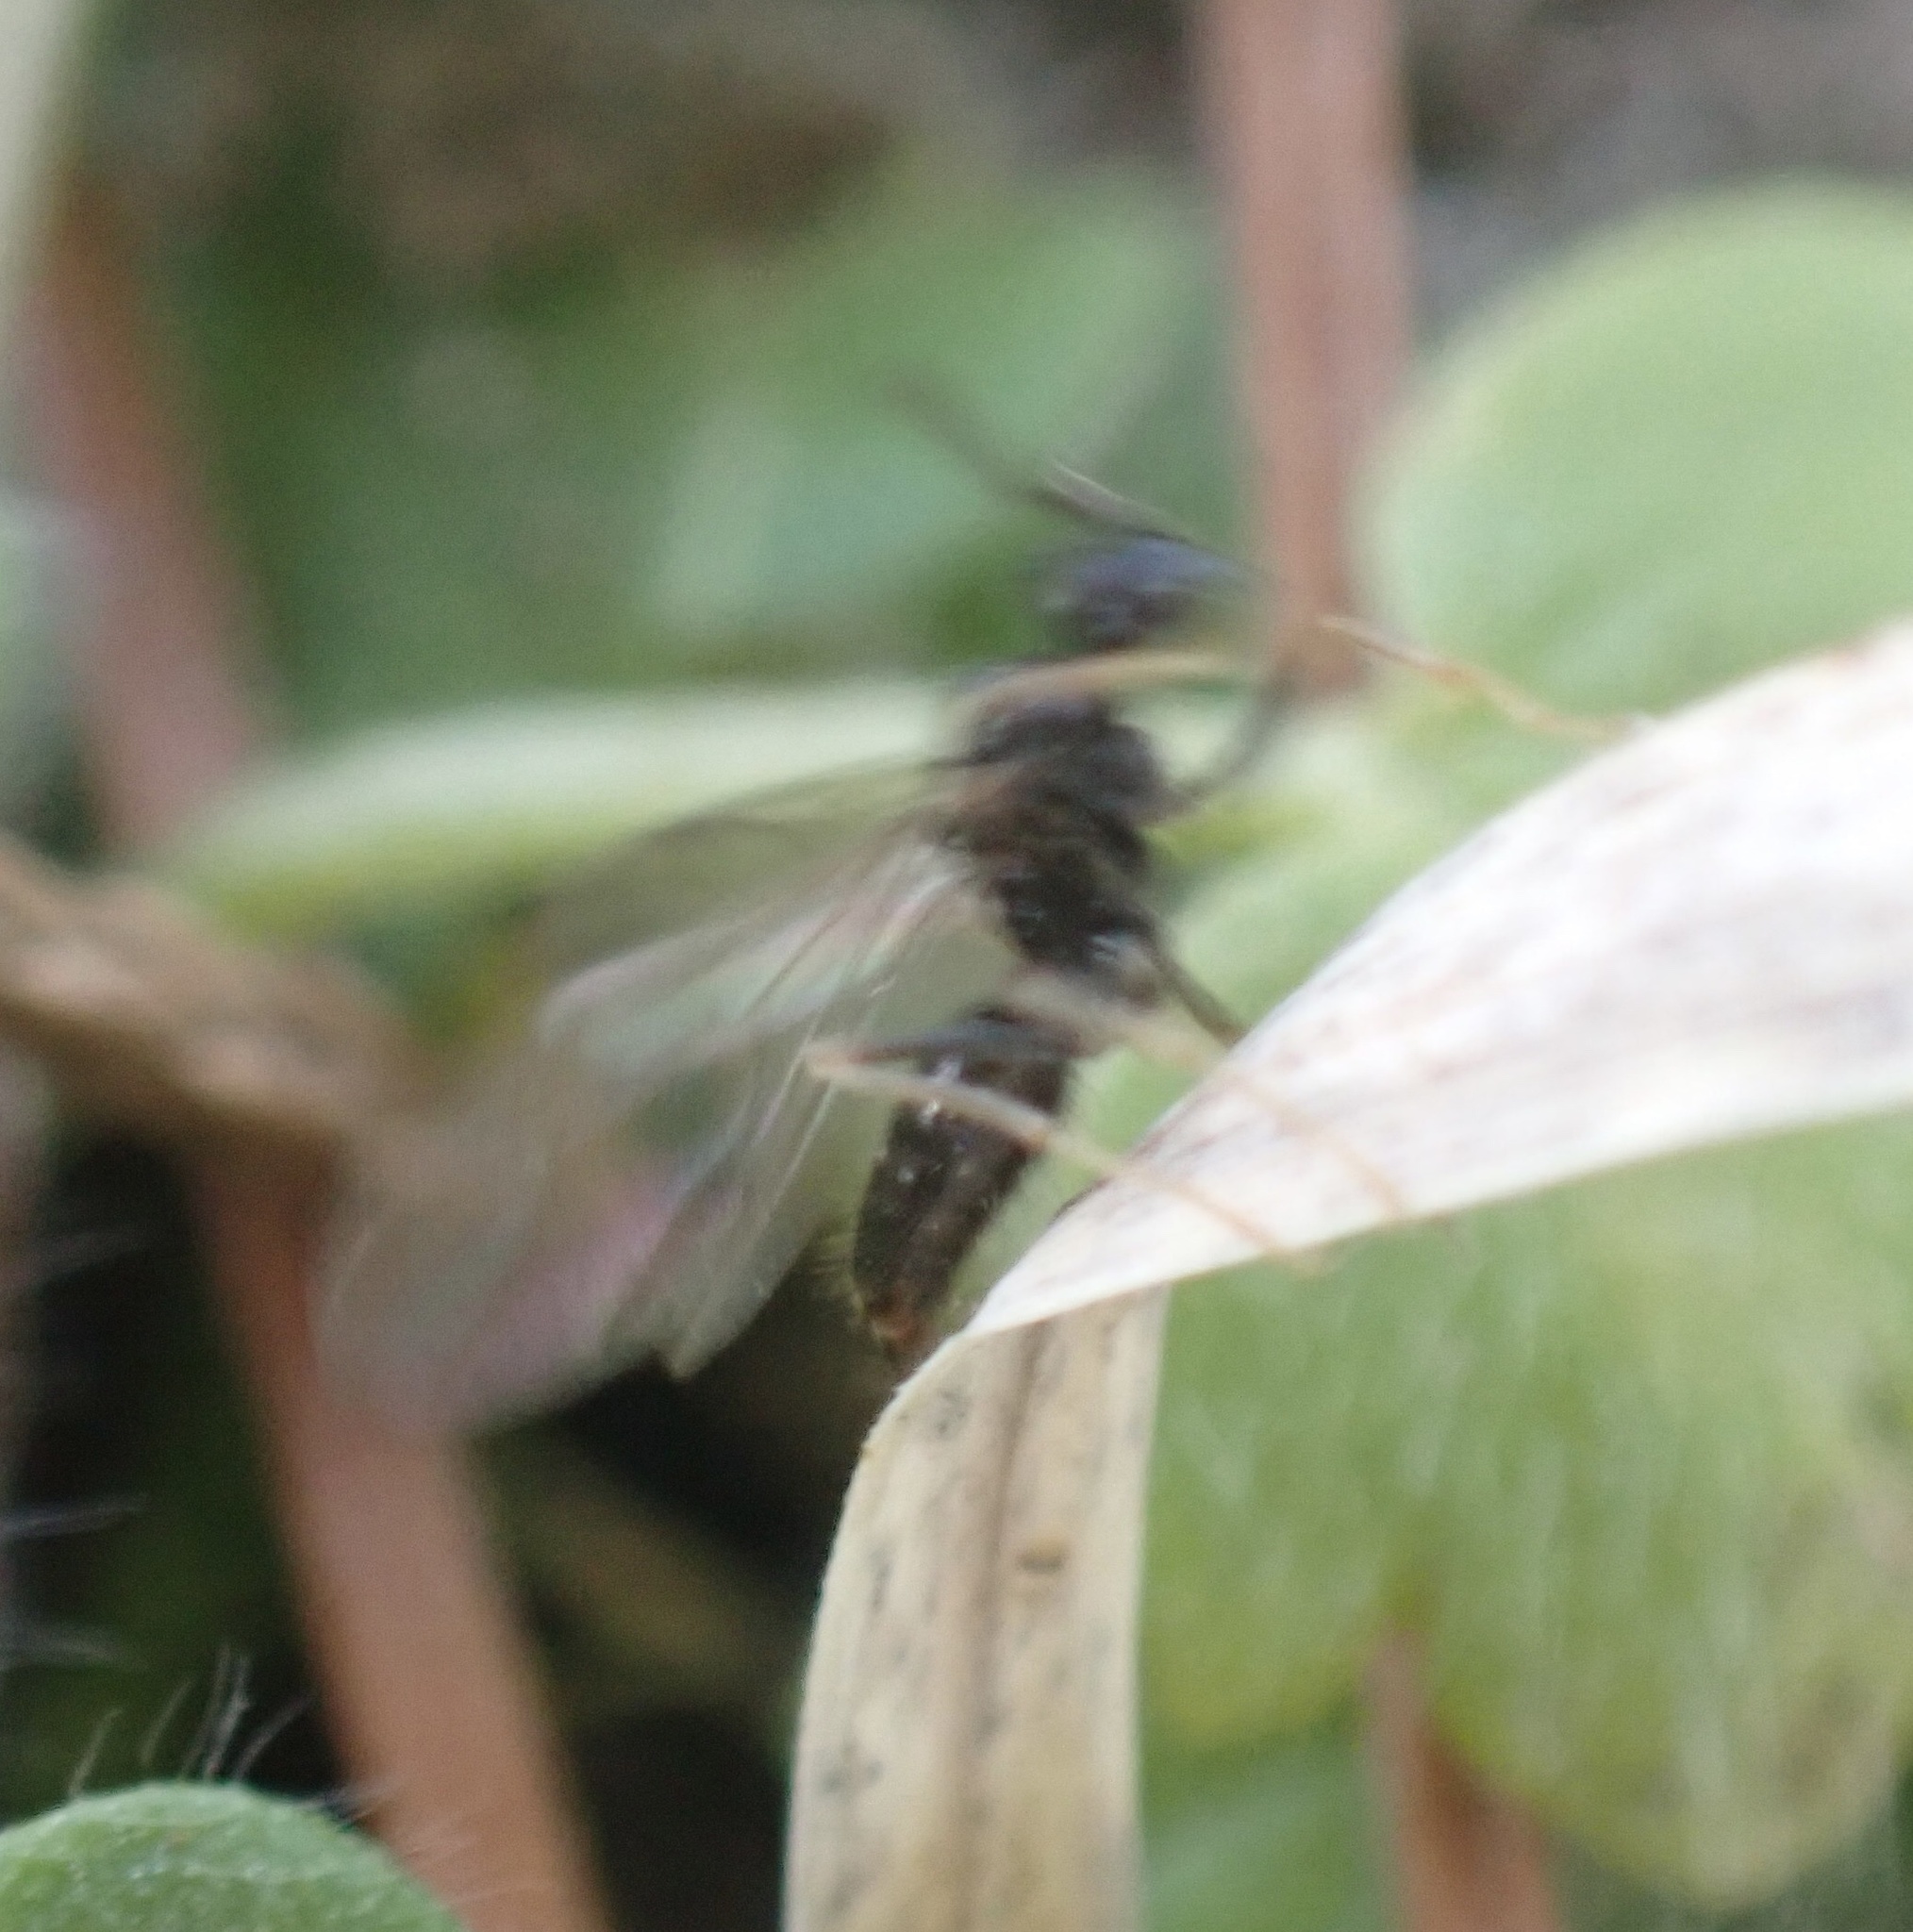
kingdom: Animalia
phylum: Arthropoda
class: Insecta
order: Hymenoptera
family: Formicidae
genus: Prenolepis
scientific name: Prenolepis imparis
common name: Small honey ant
